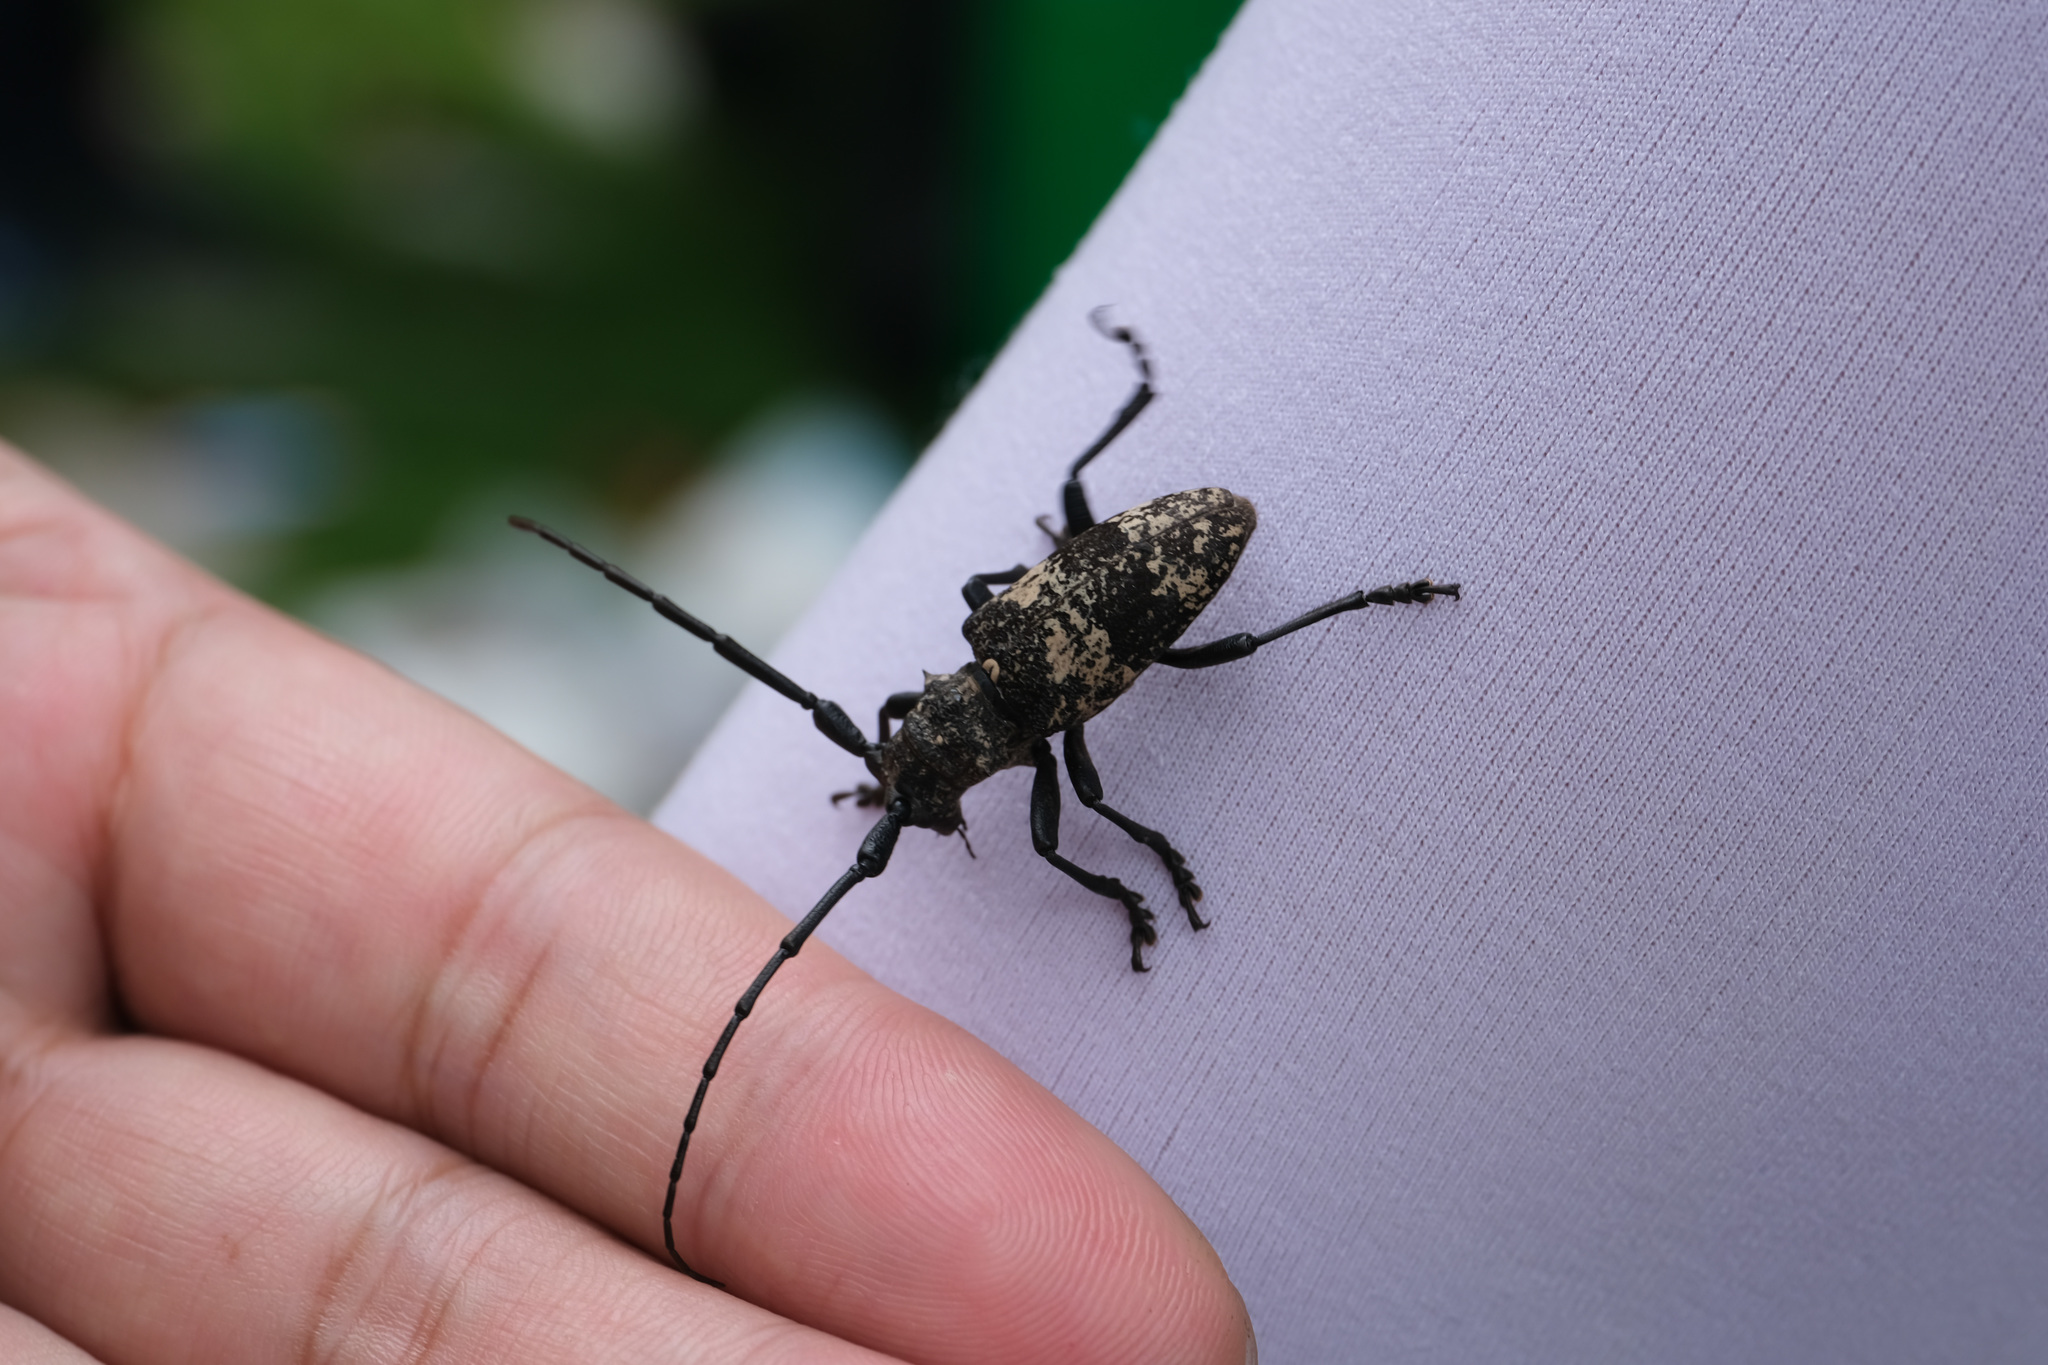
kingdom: Animalia
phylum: Arthropoda
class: Insecta
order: Coleoptera
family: Cerambycidae
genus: Lamiomimus
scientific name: Lamiomimus gottschei
